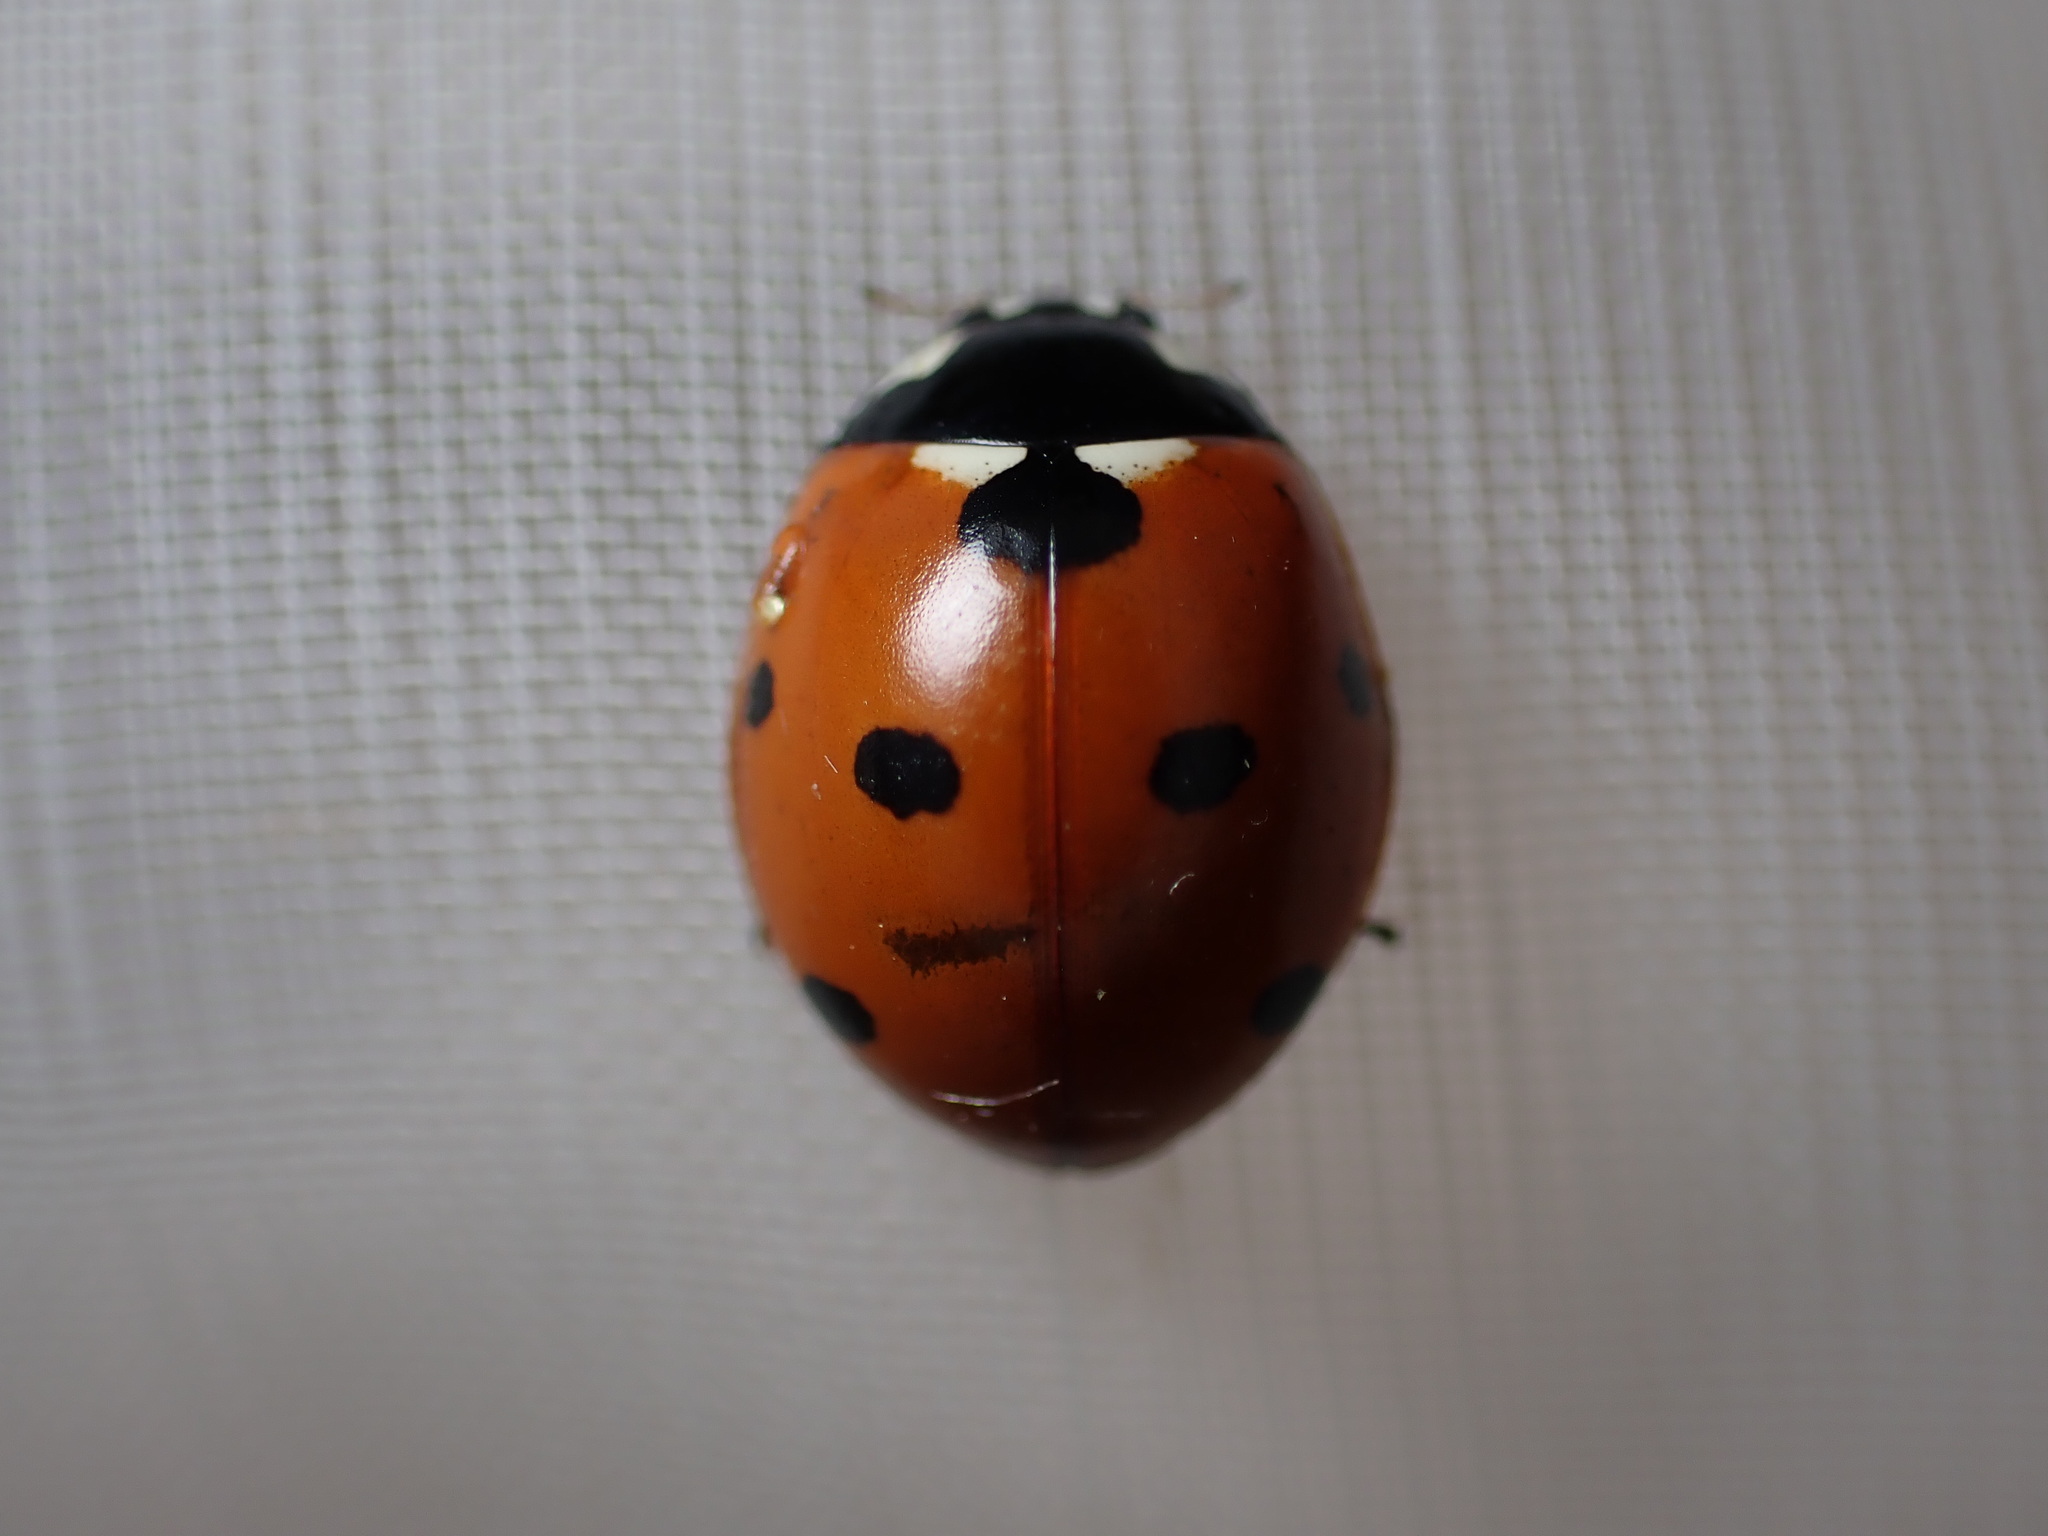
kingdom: Animalia
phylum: Arthropoda
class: Insecta
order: Coleoptera
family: Coccinellidae
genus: Coccinella
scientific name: Coccinella septempunctata
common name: Sevenspotted lady beetle
